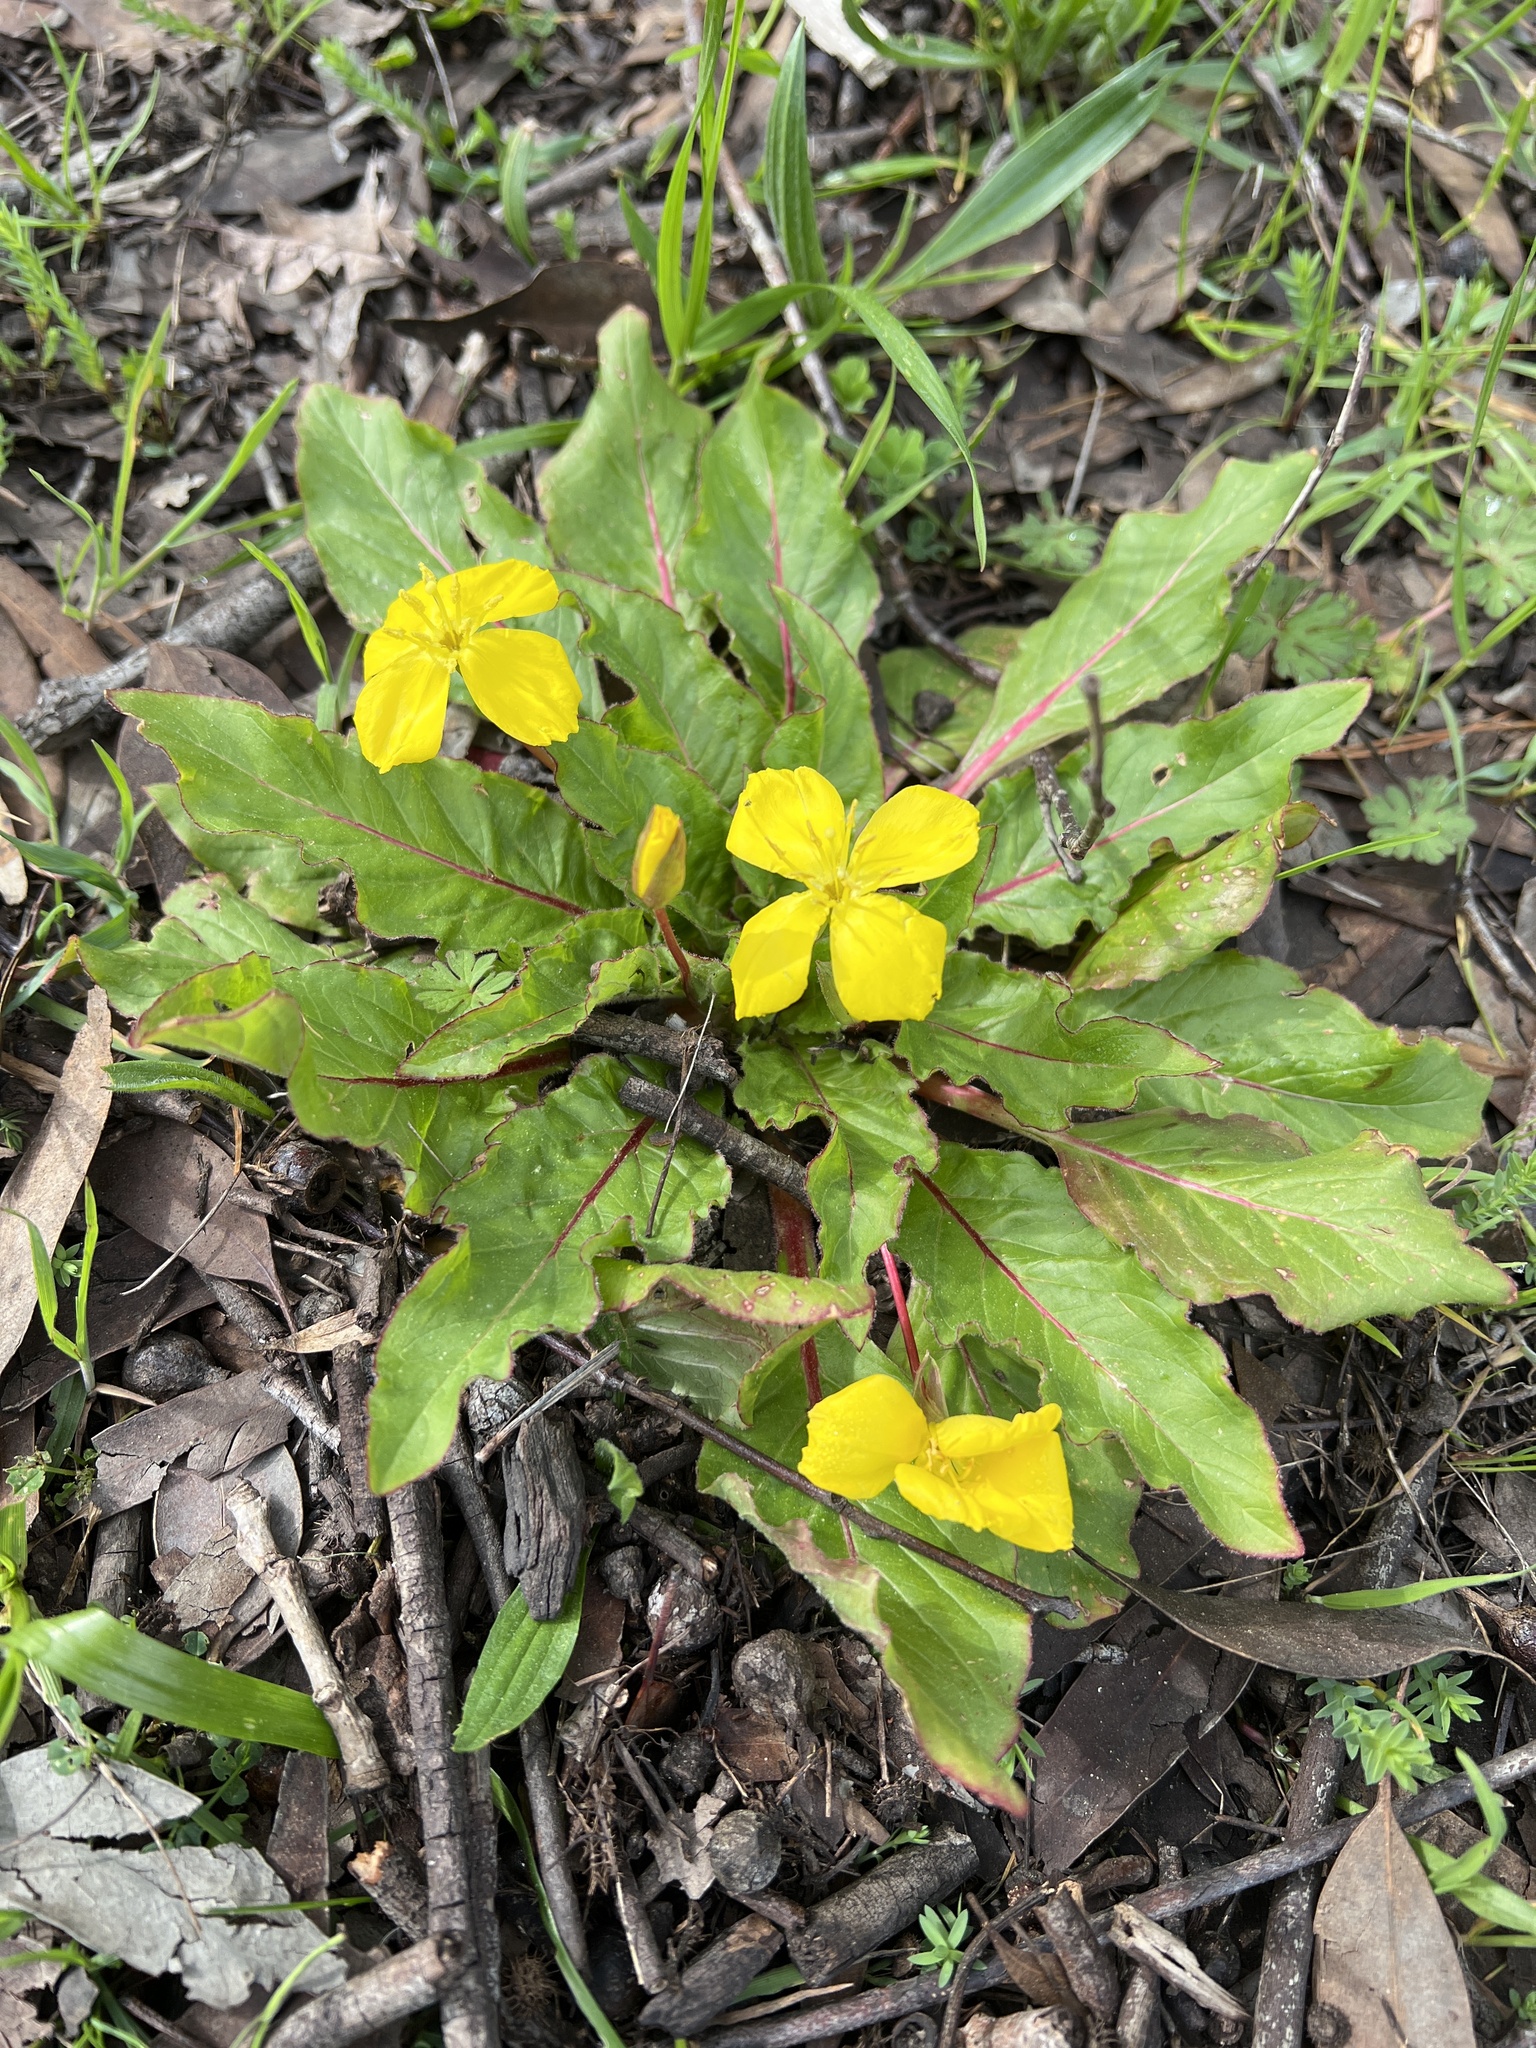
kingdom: Plantae
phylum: Tracheophyta
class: Magnoliopsida
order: Myrtales
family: Onagraceae
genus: Taraxia
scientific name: Taraxia ovata
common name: Goldeneggs
